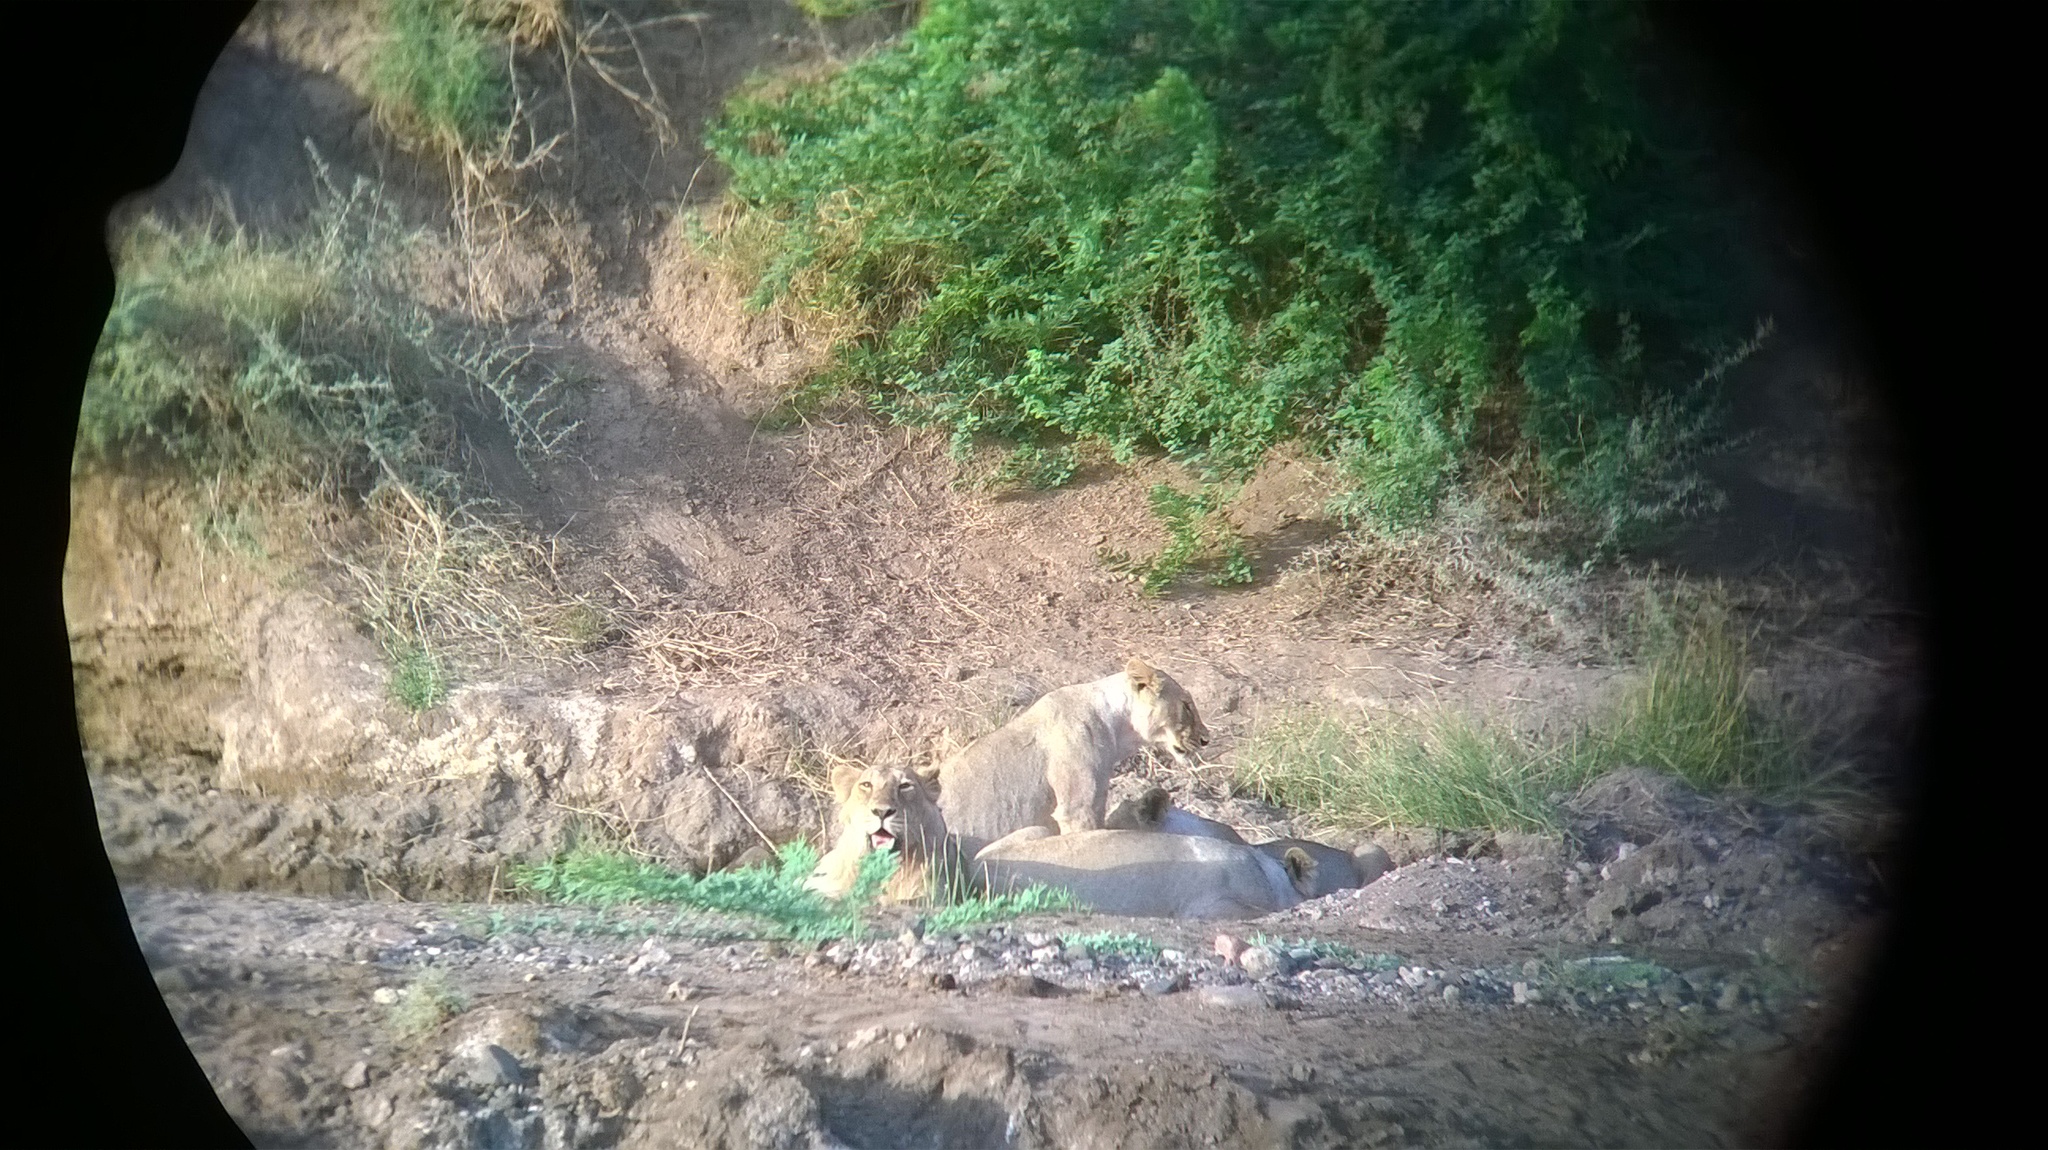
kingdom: Animalia
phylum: Chordata
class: Mammalia
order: Carnivora
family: Felidae
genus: Panthera
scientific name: Panthera leo
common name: Lion
